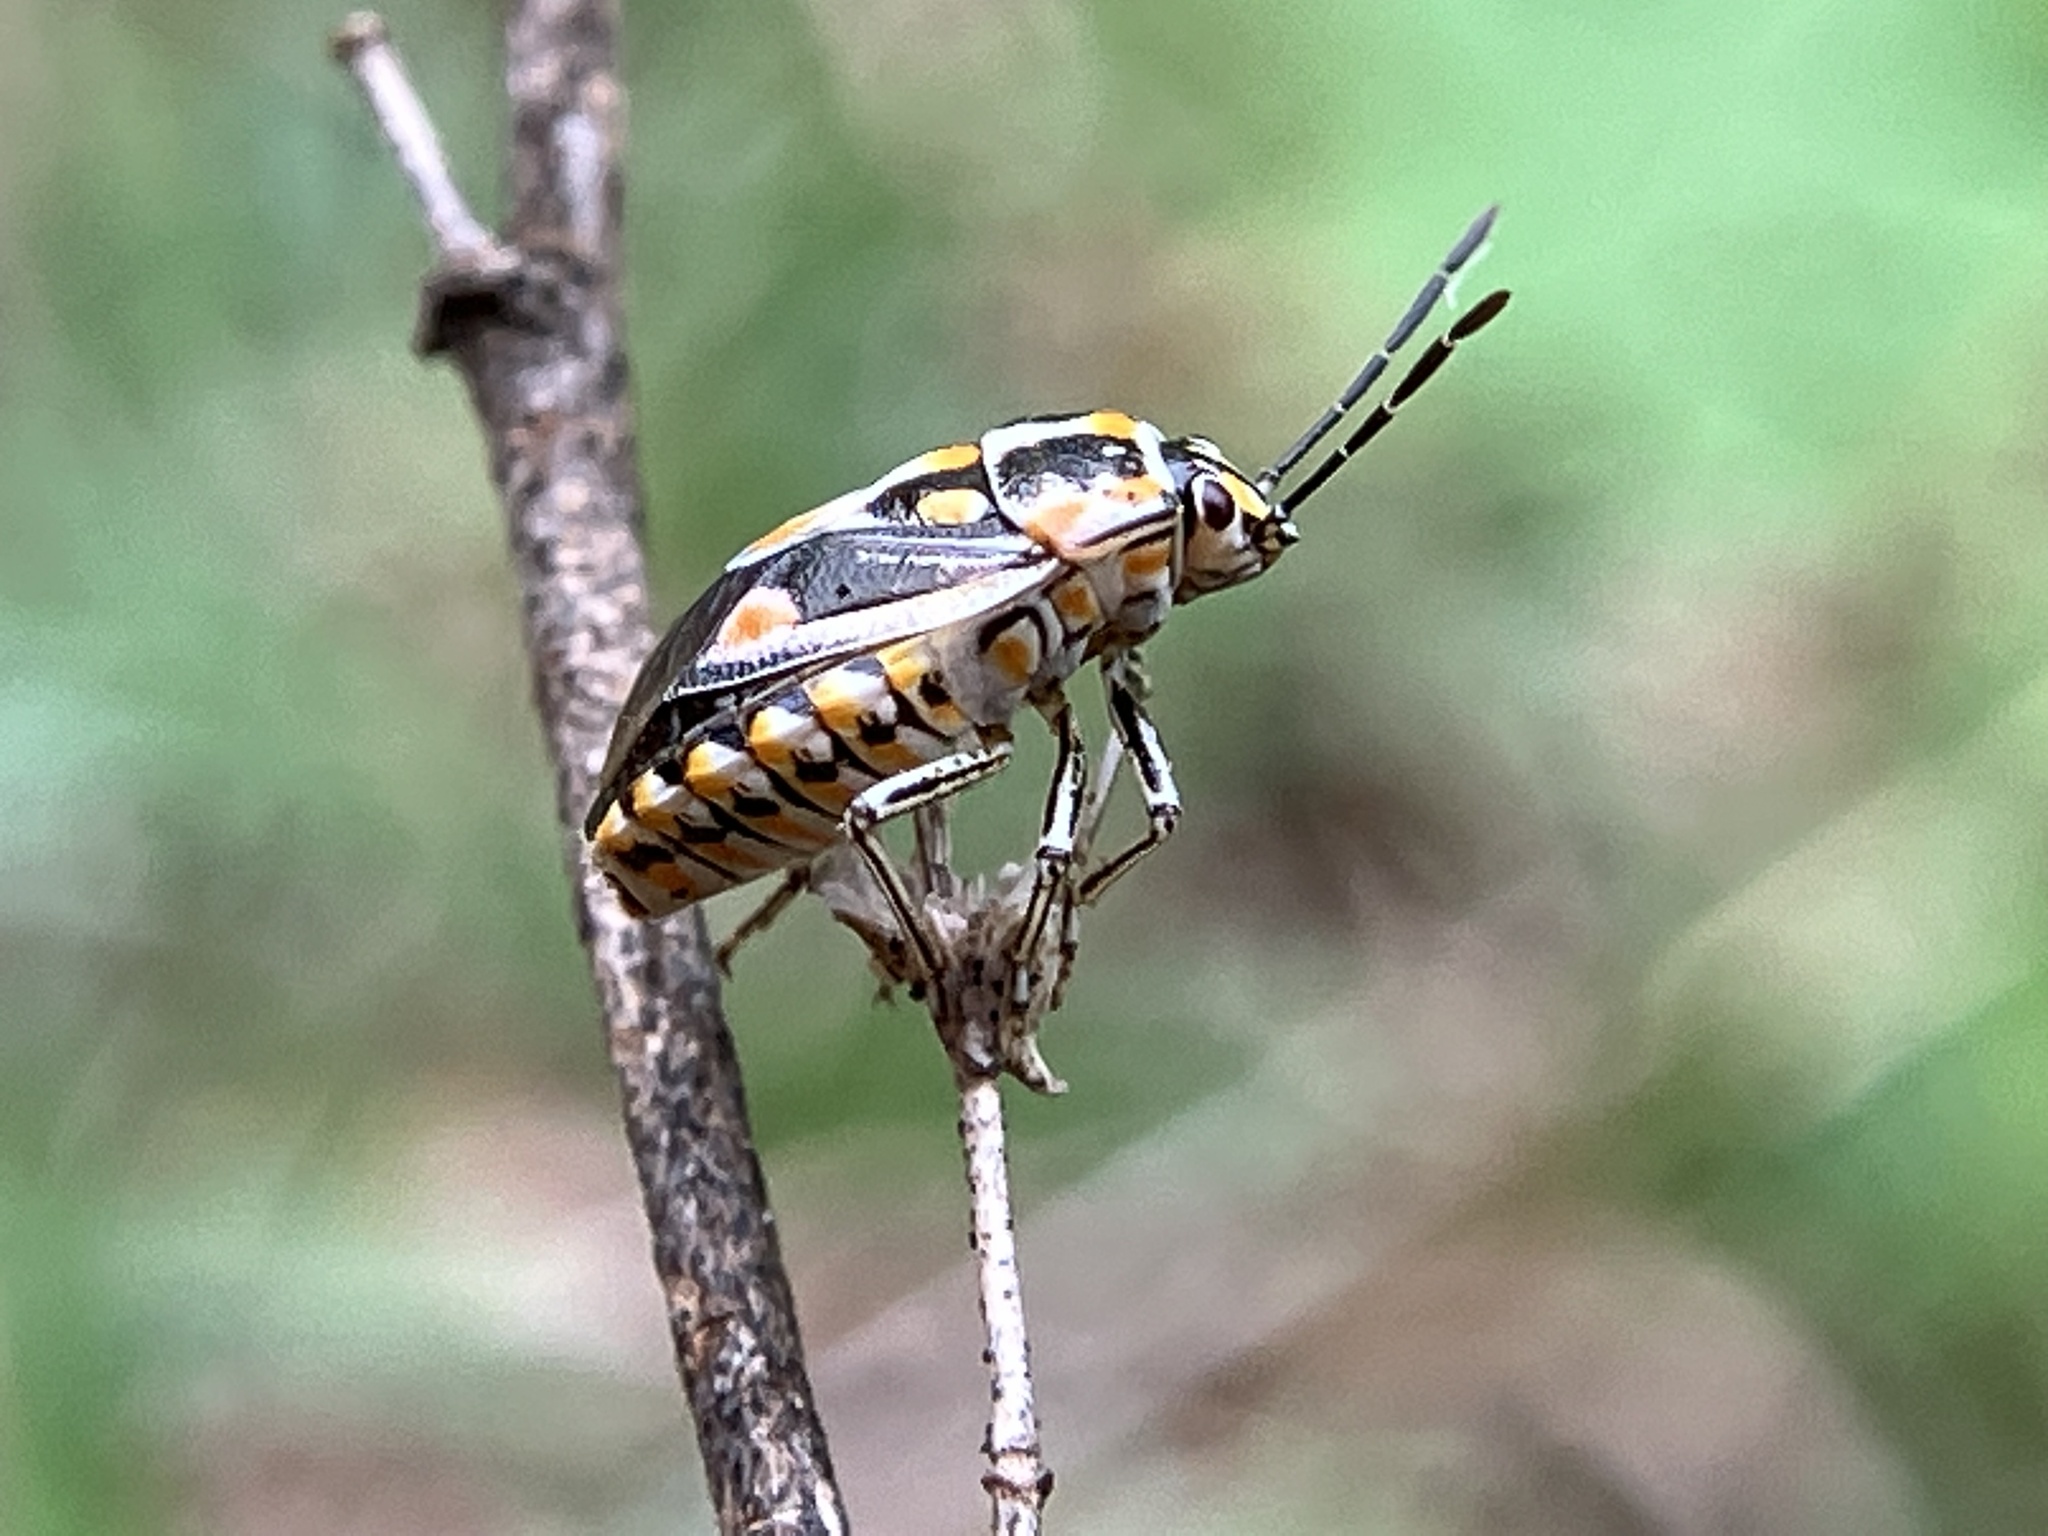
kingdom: Animalia
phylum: Arthropoda
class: Insecta
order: Hemiptera
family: Pentatomidae
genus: Bagrada
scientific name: Bagrada hilaris
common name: Bagrada bug
